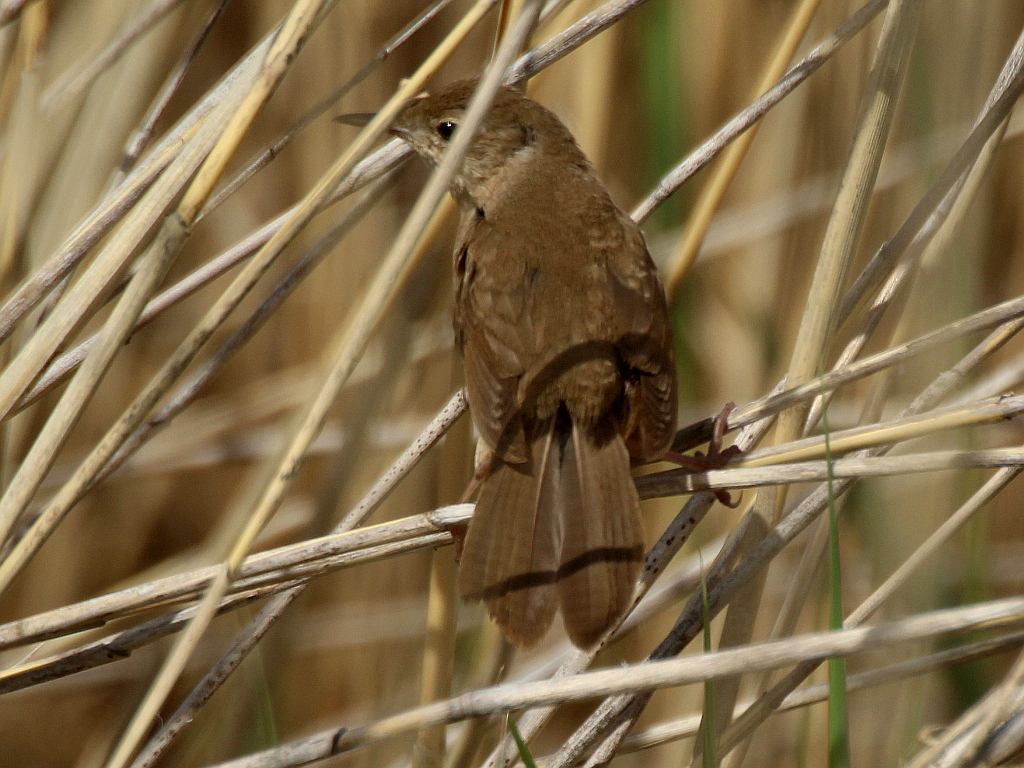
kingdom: Animalia
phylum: Chordata
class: Aves
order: Passeriformes
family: Locustellidae
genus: Locustella
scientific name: Locustella luscinioides
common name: Savi's warbler
